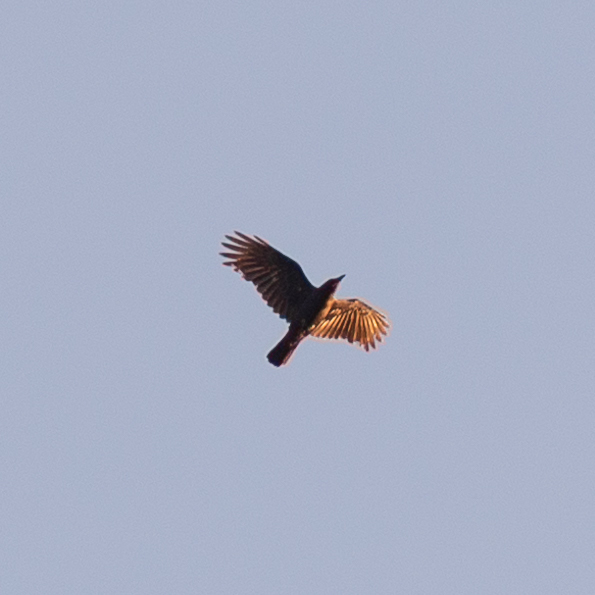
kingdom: Animalia
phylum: Chordata
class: Aves
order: Passeriformes
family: Corvidae
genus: Corvus
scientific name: Corvus corone
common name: Carrion crow
